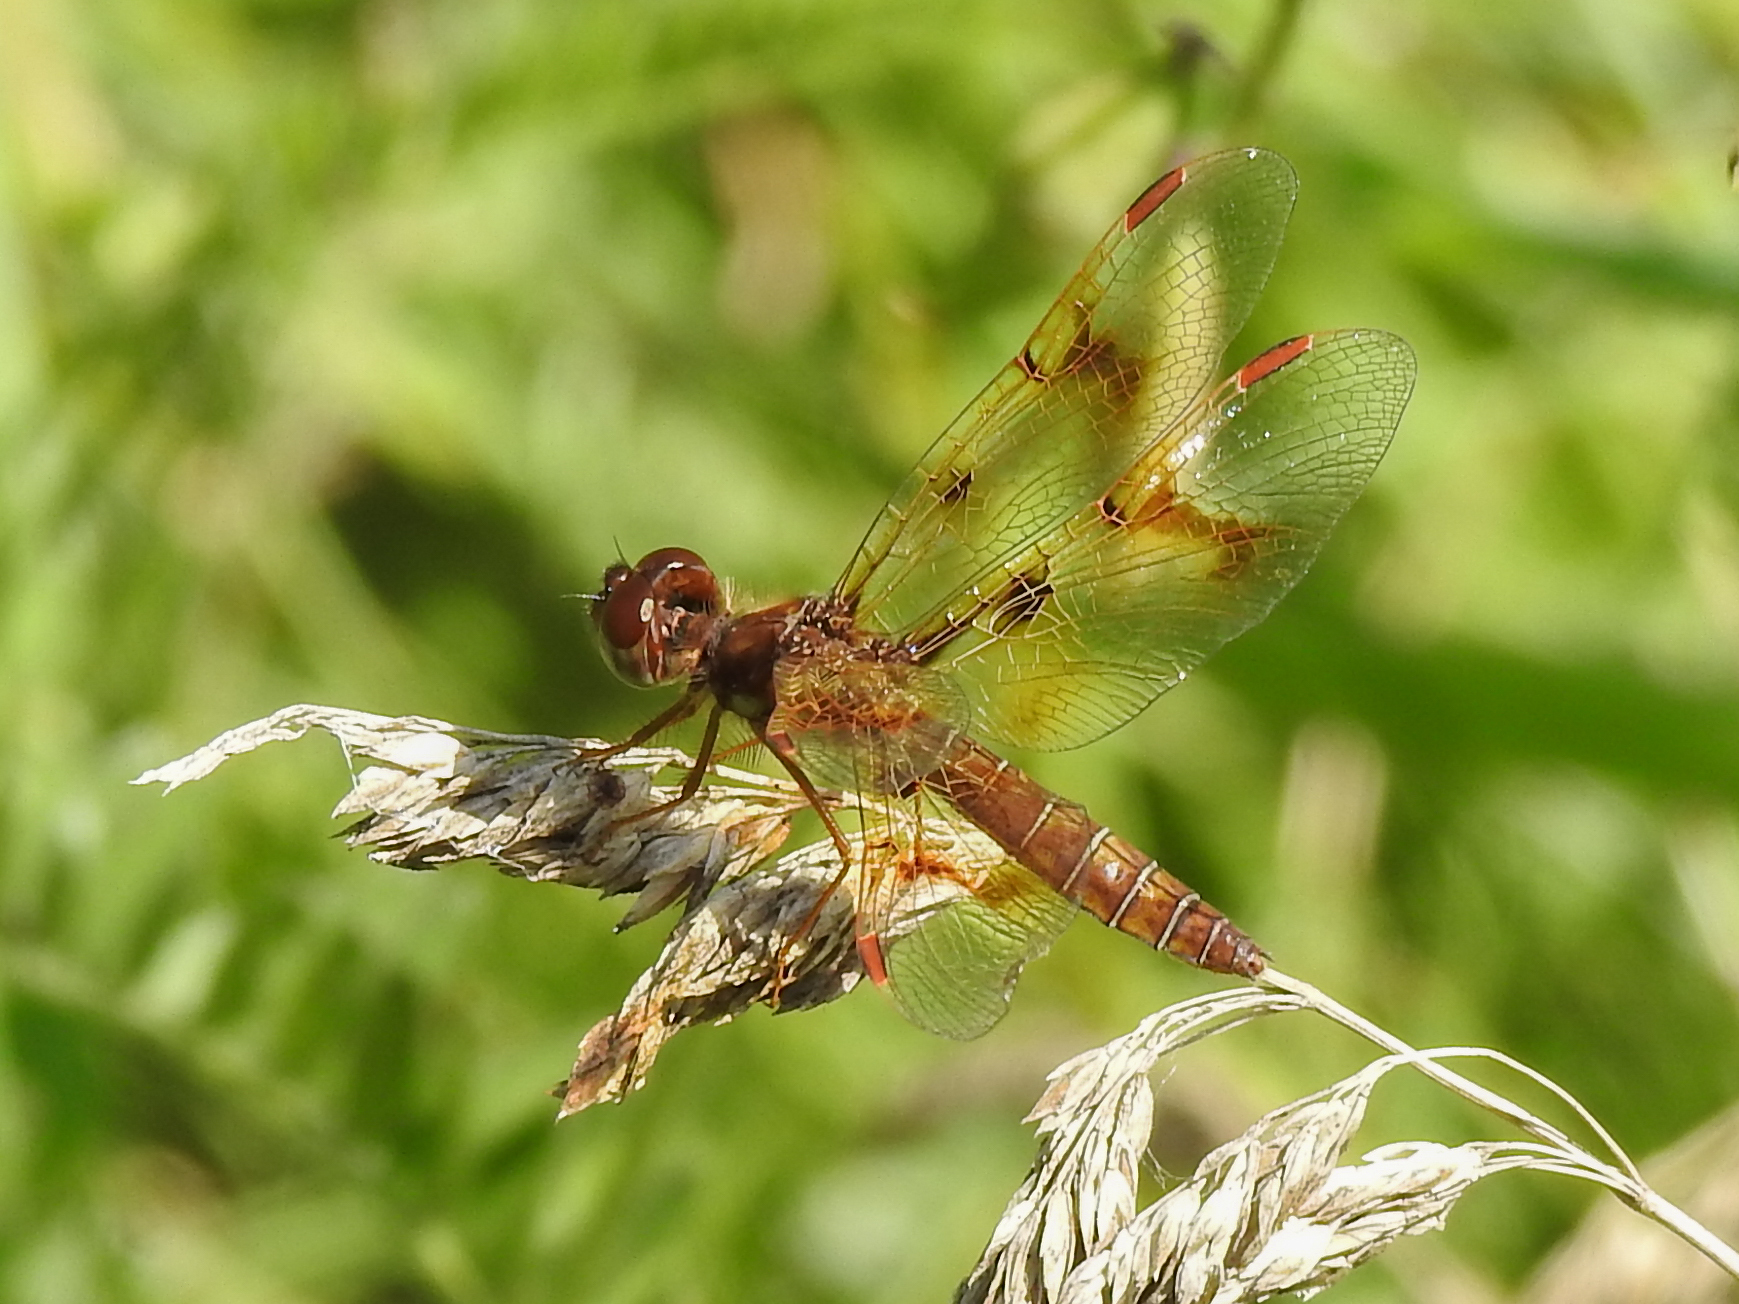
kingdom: Animalia
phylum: Arthropoda
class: Insecta
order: Odonata
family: Libellulidae
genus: Perithemis
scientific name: Perithemis tenera
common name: Eastern amberwing
